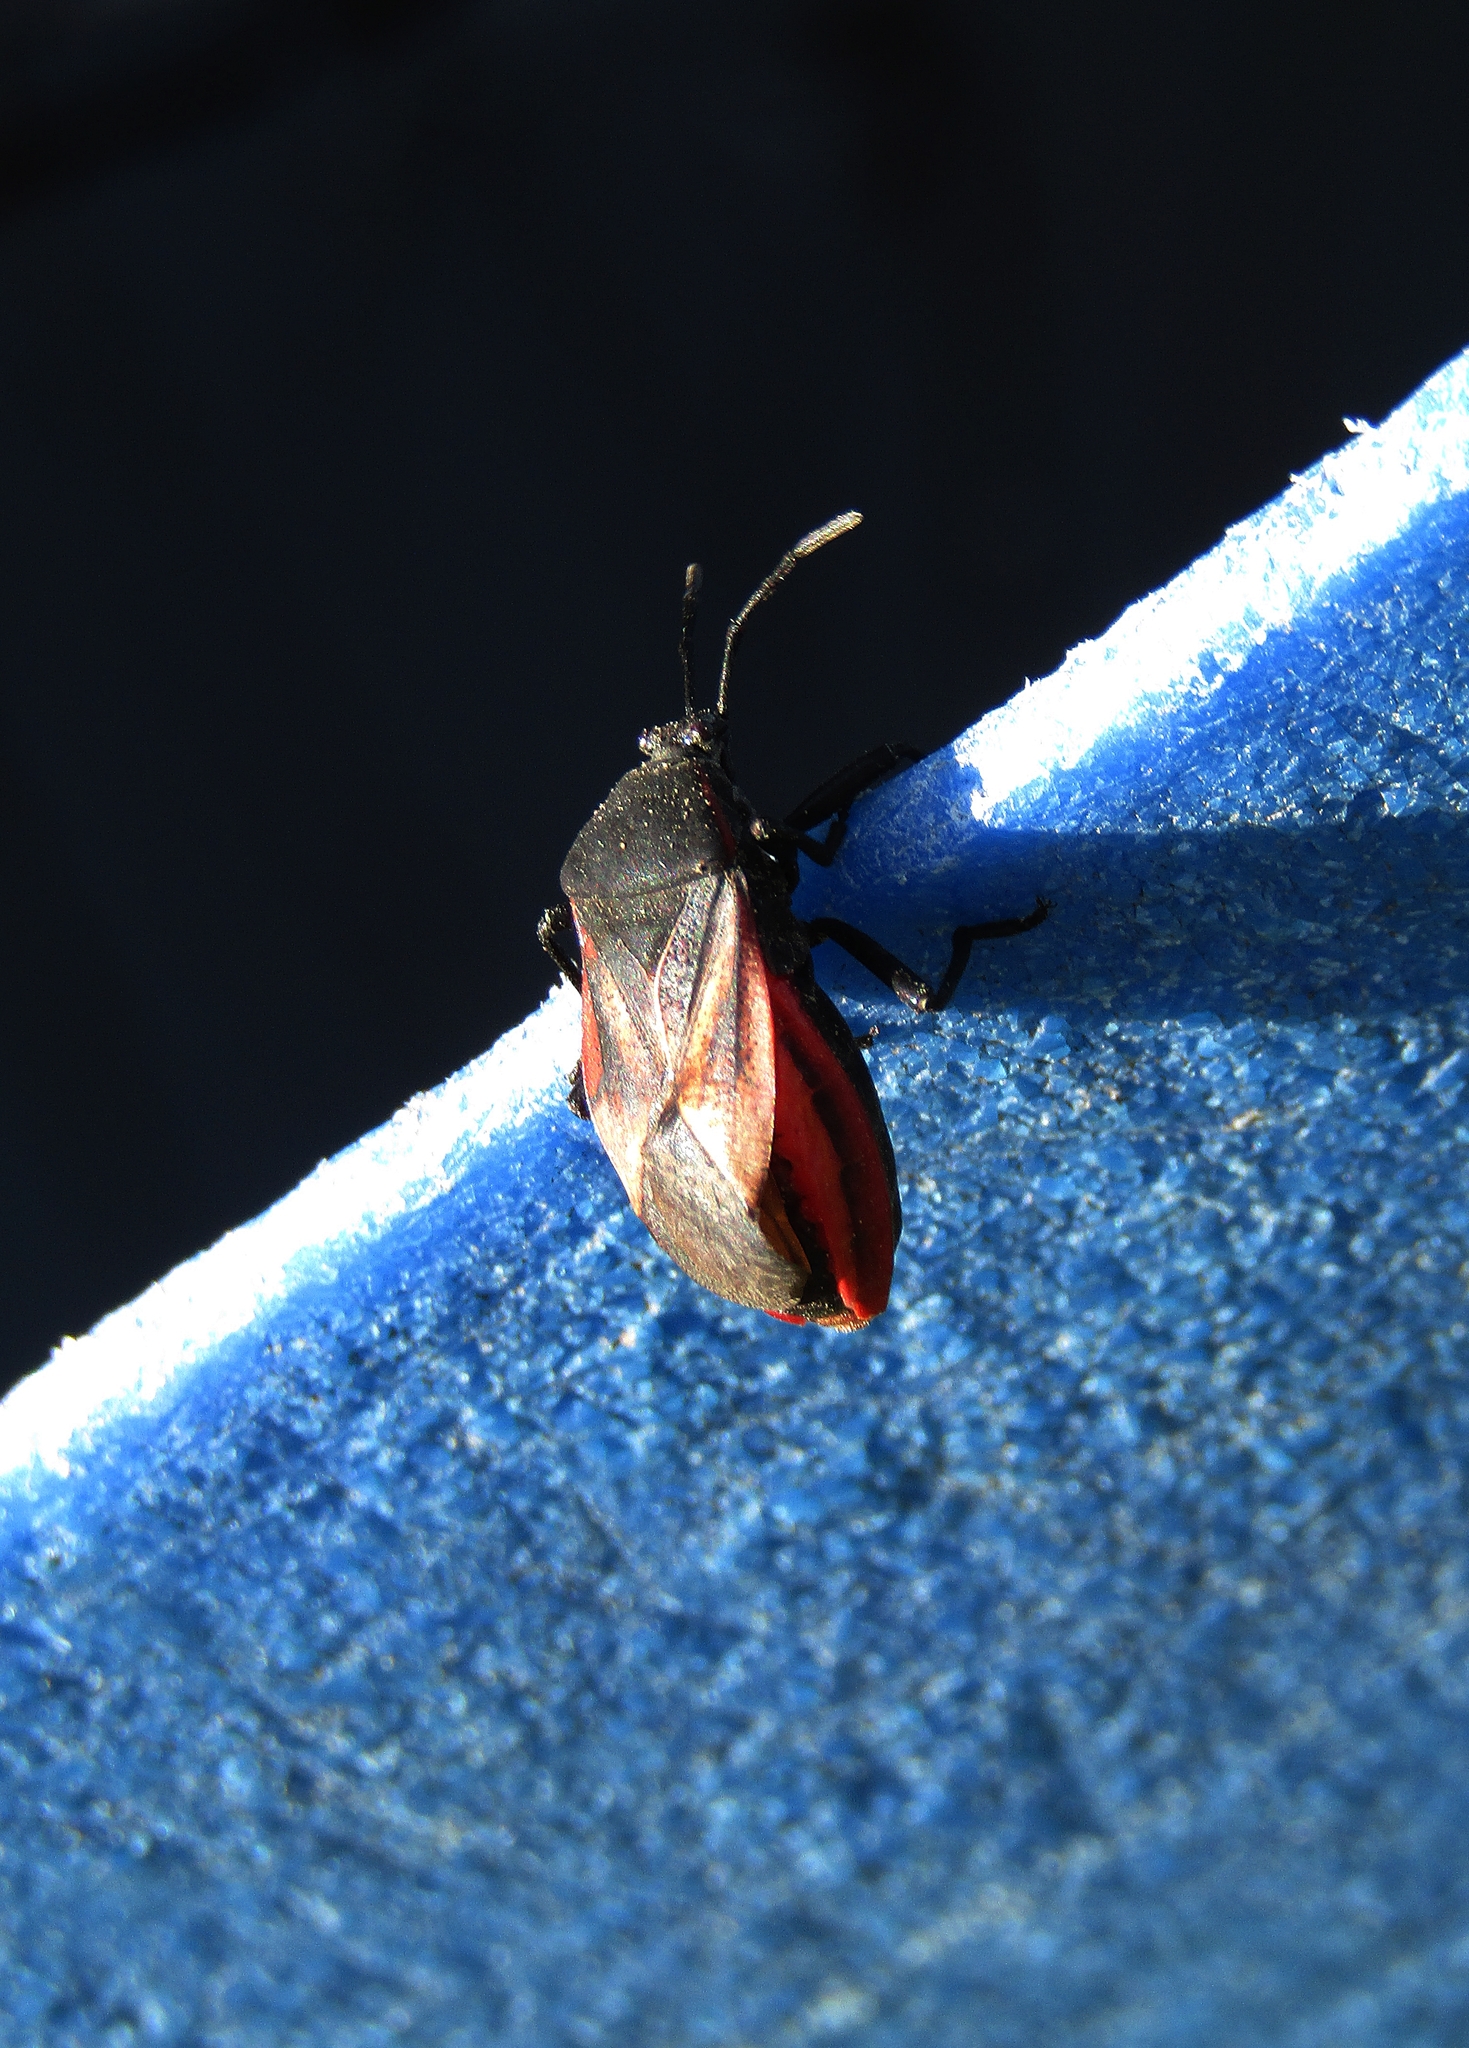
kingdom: Animalia
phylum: Arthropoda
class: Insecta
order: Hemiptera
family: Largidae
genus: Largus
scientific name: Largus rufipennis
